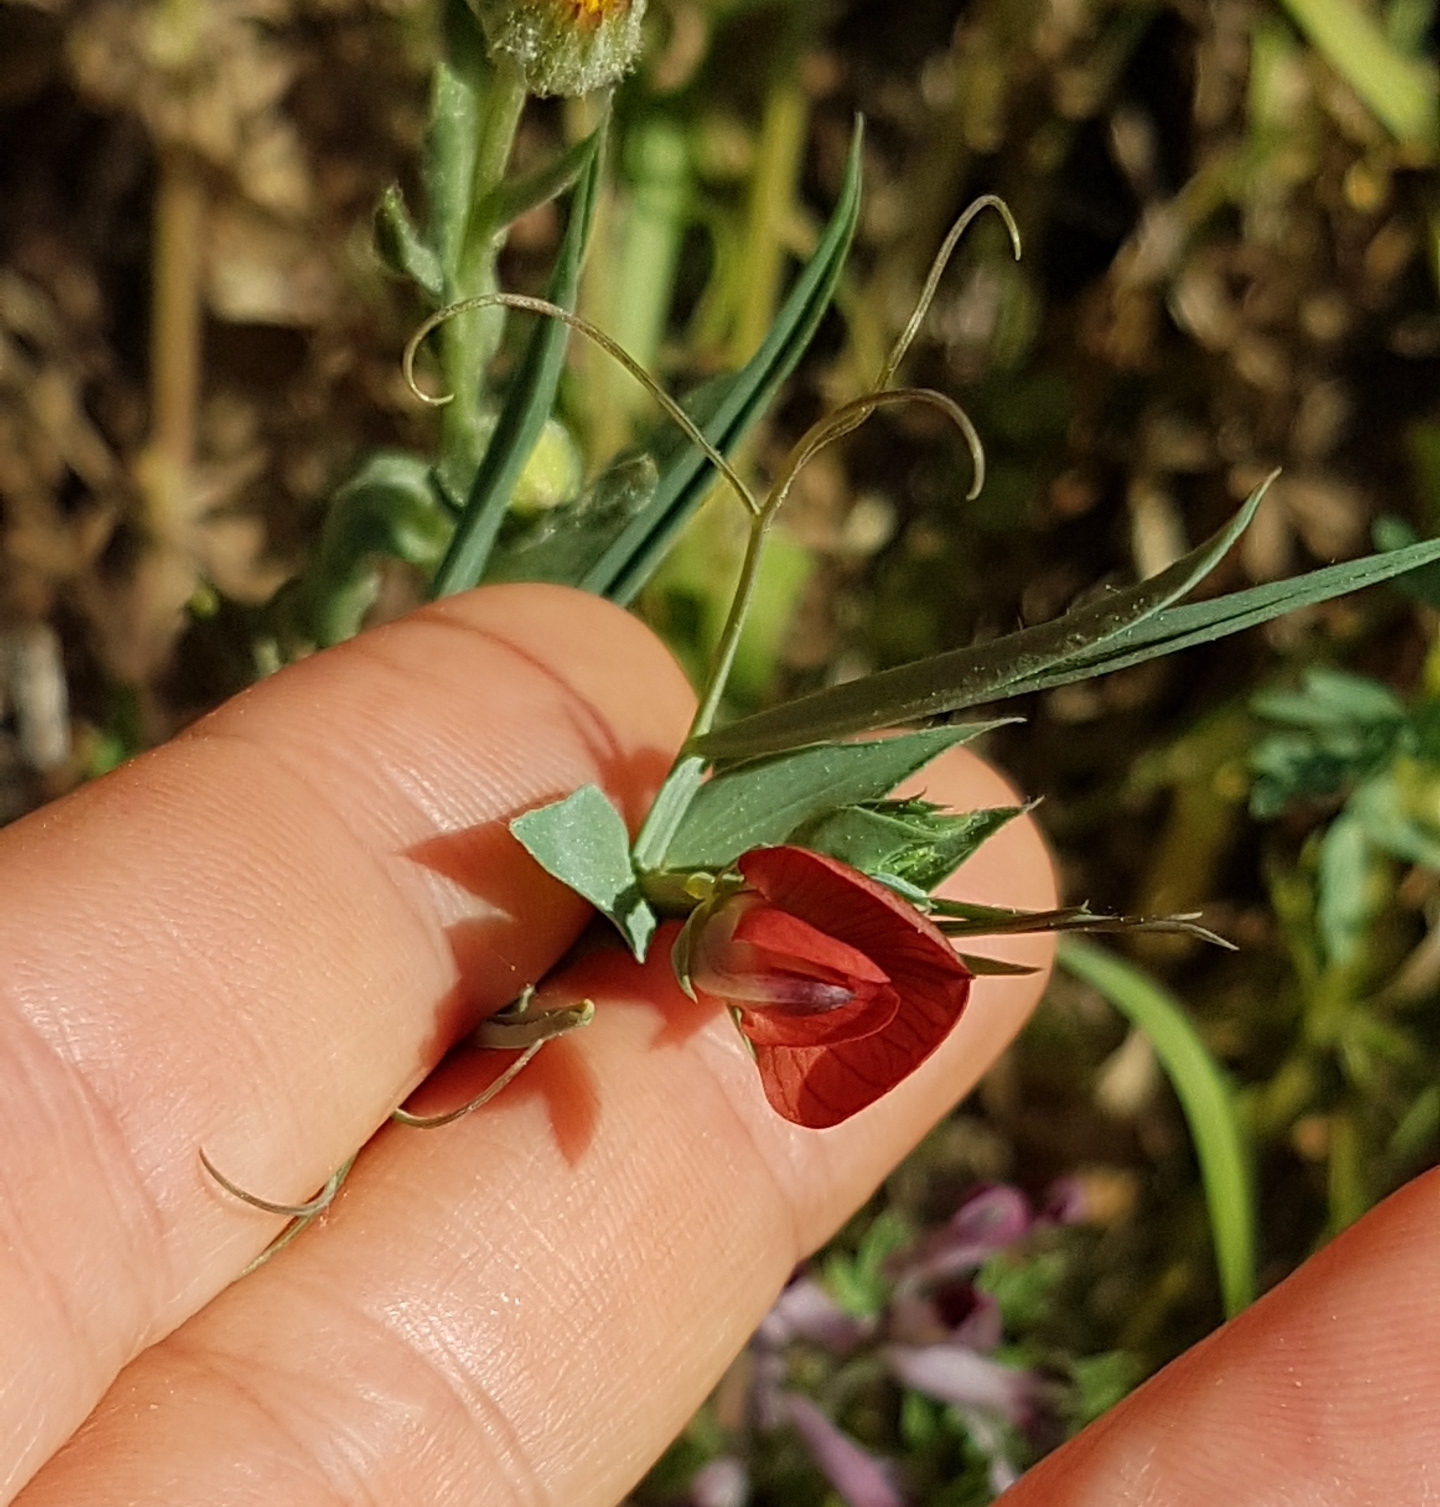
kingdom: Plantae
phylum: Tracheophyta
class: Magnoliopsida
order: Fabales
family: Fabaceae
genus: Lathyrus
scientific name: Lathyrus cicera
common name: Red vetchling
